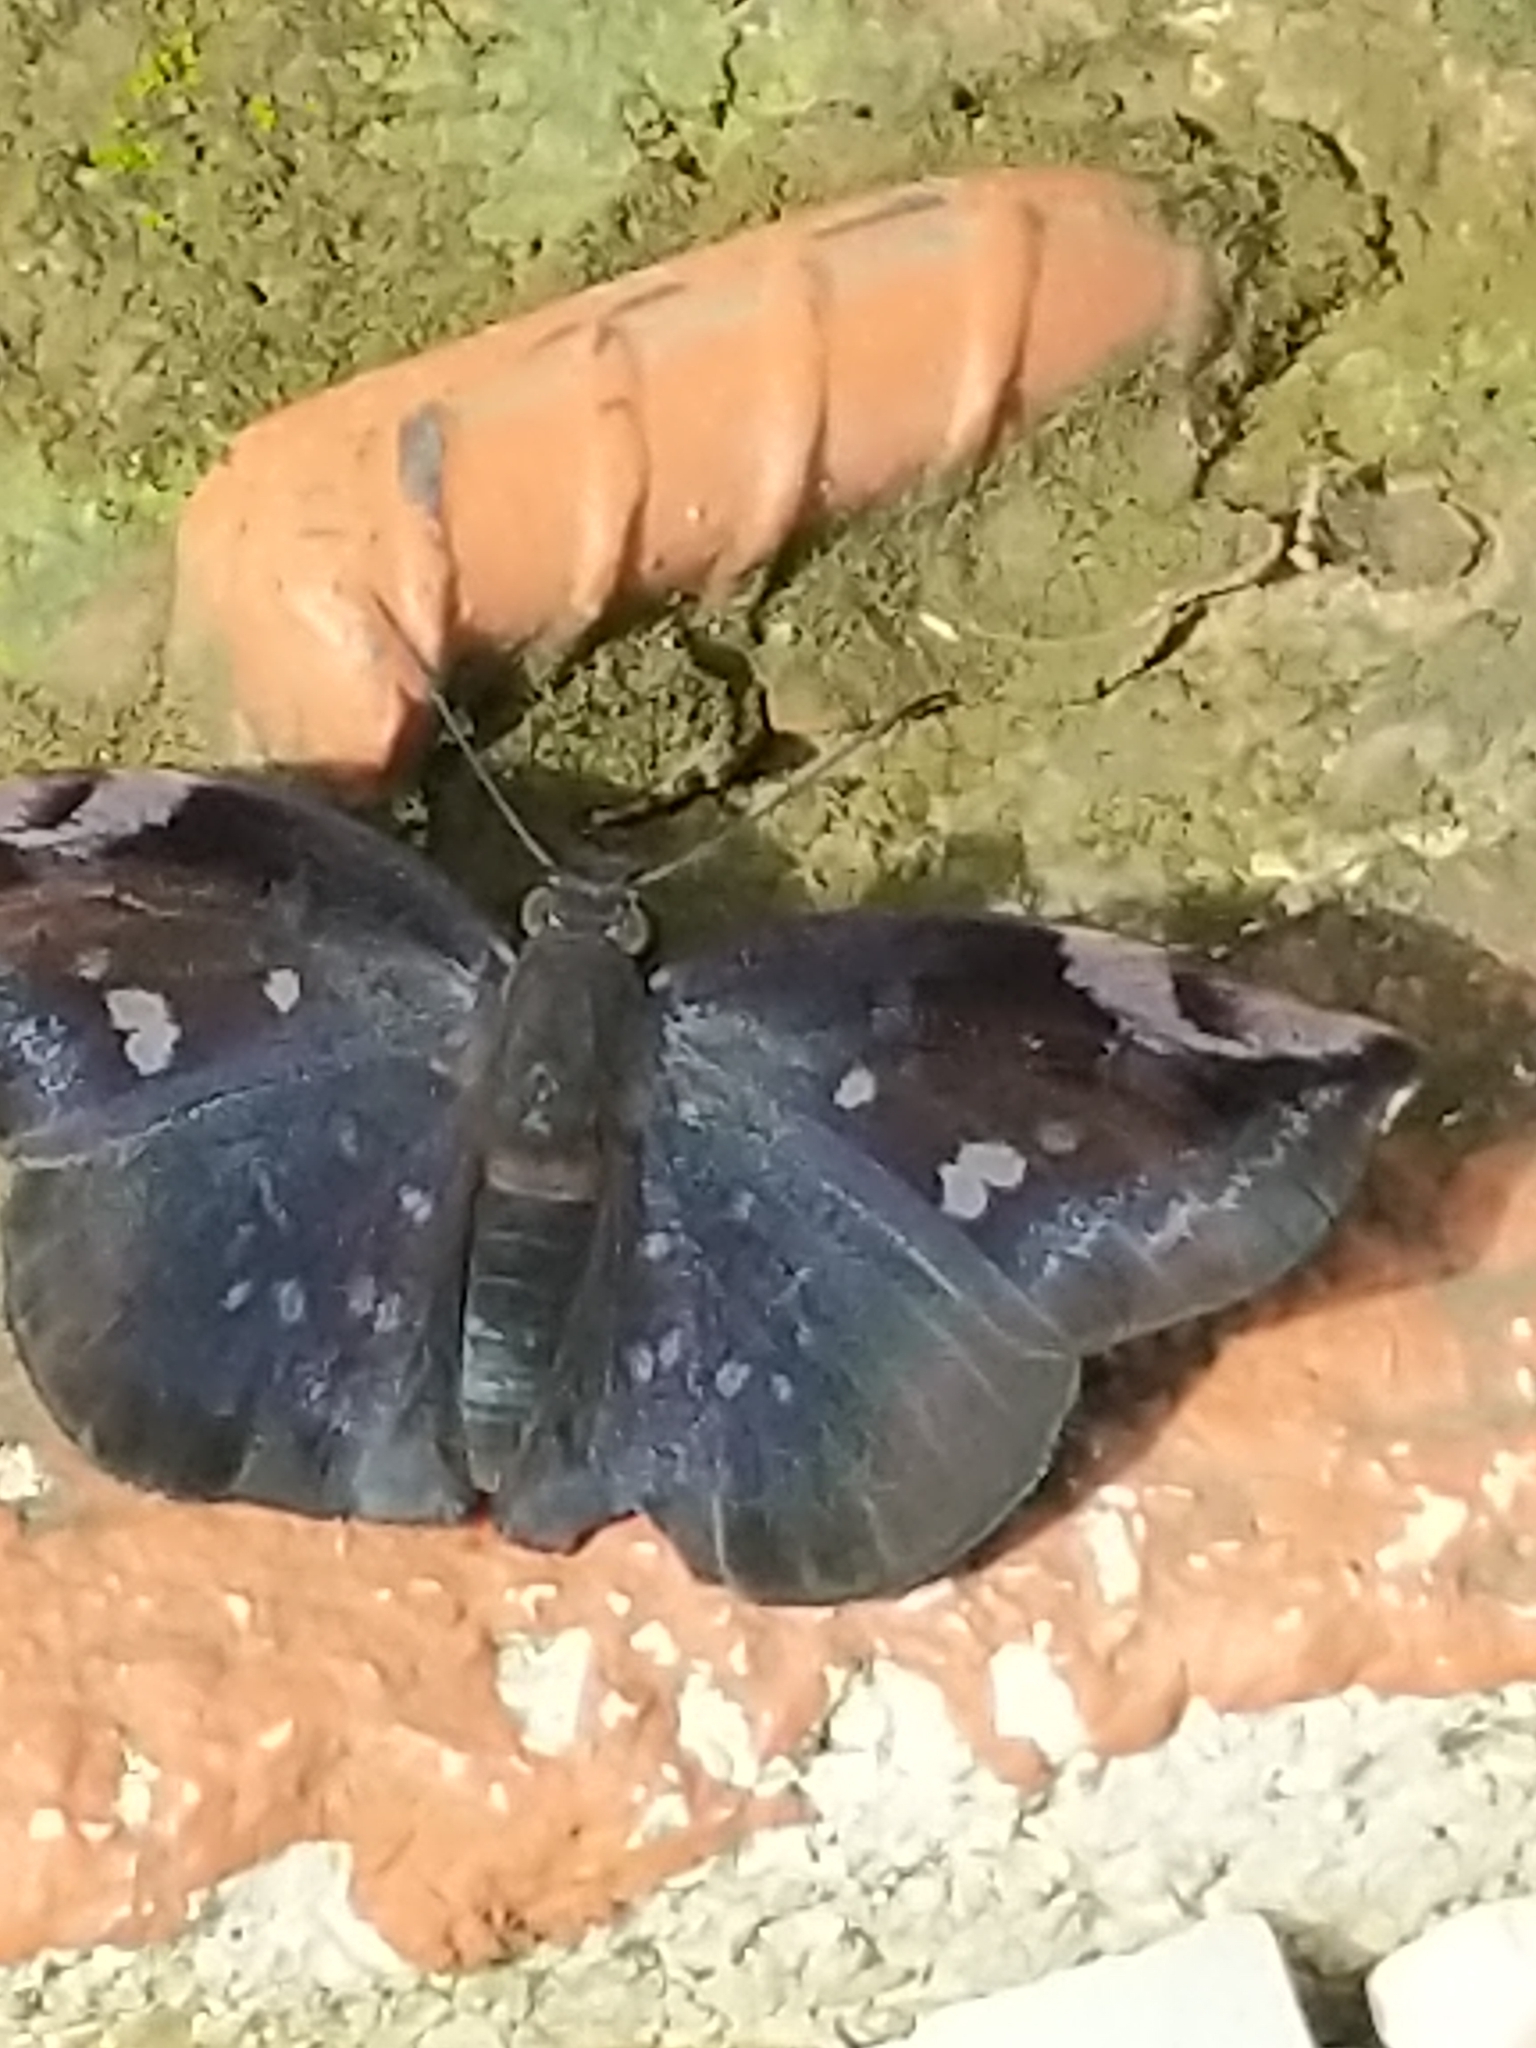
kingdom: Animalia
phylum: Arthropoda
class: Insecta
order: Lepidoptera
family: Hesperiidae
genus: Achlyodes
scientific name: Achlyodes thraso
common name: Sickle-winged skipper
